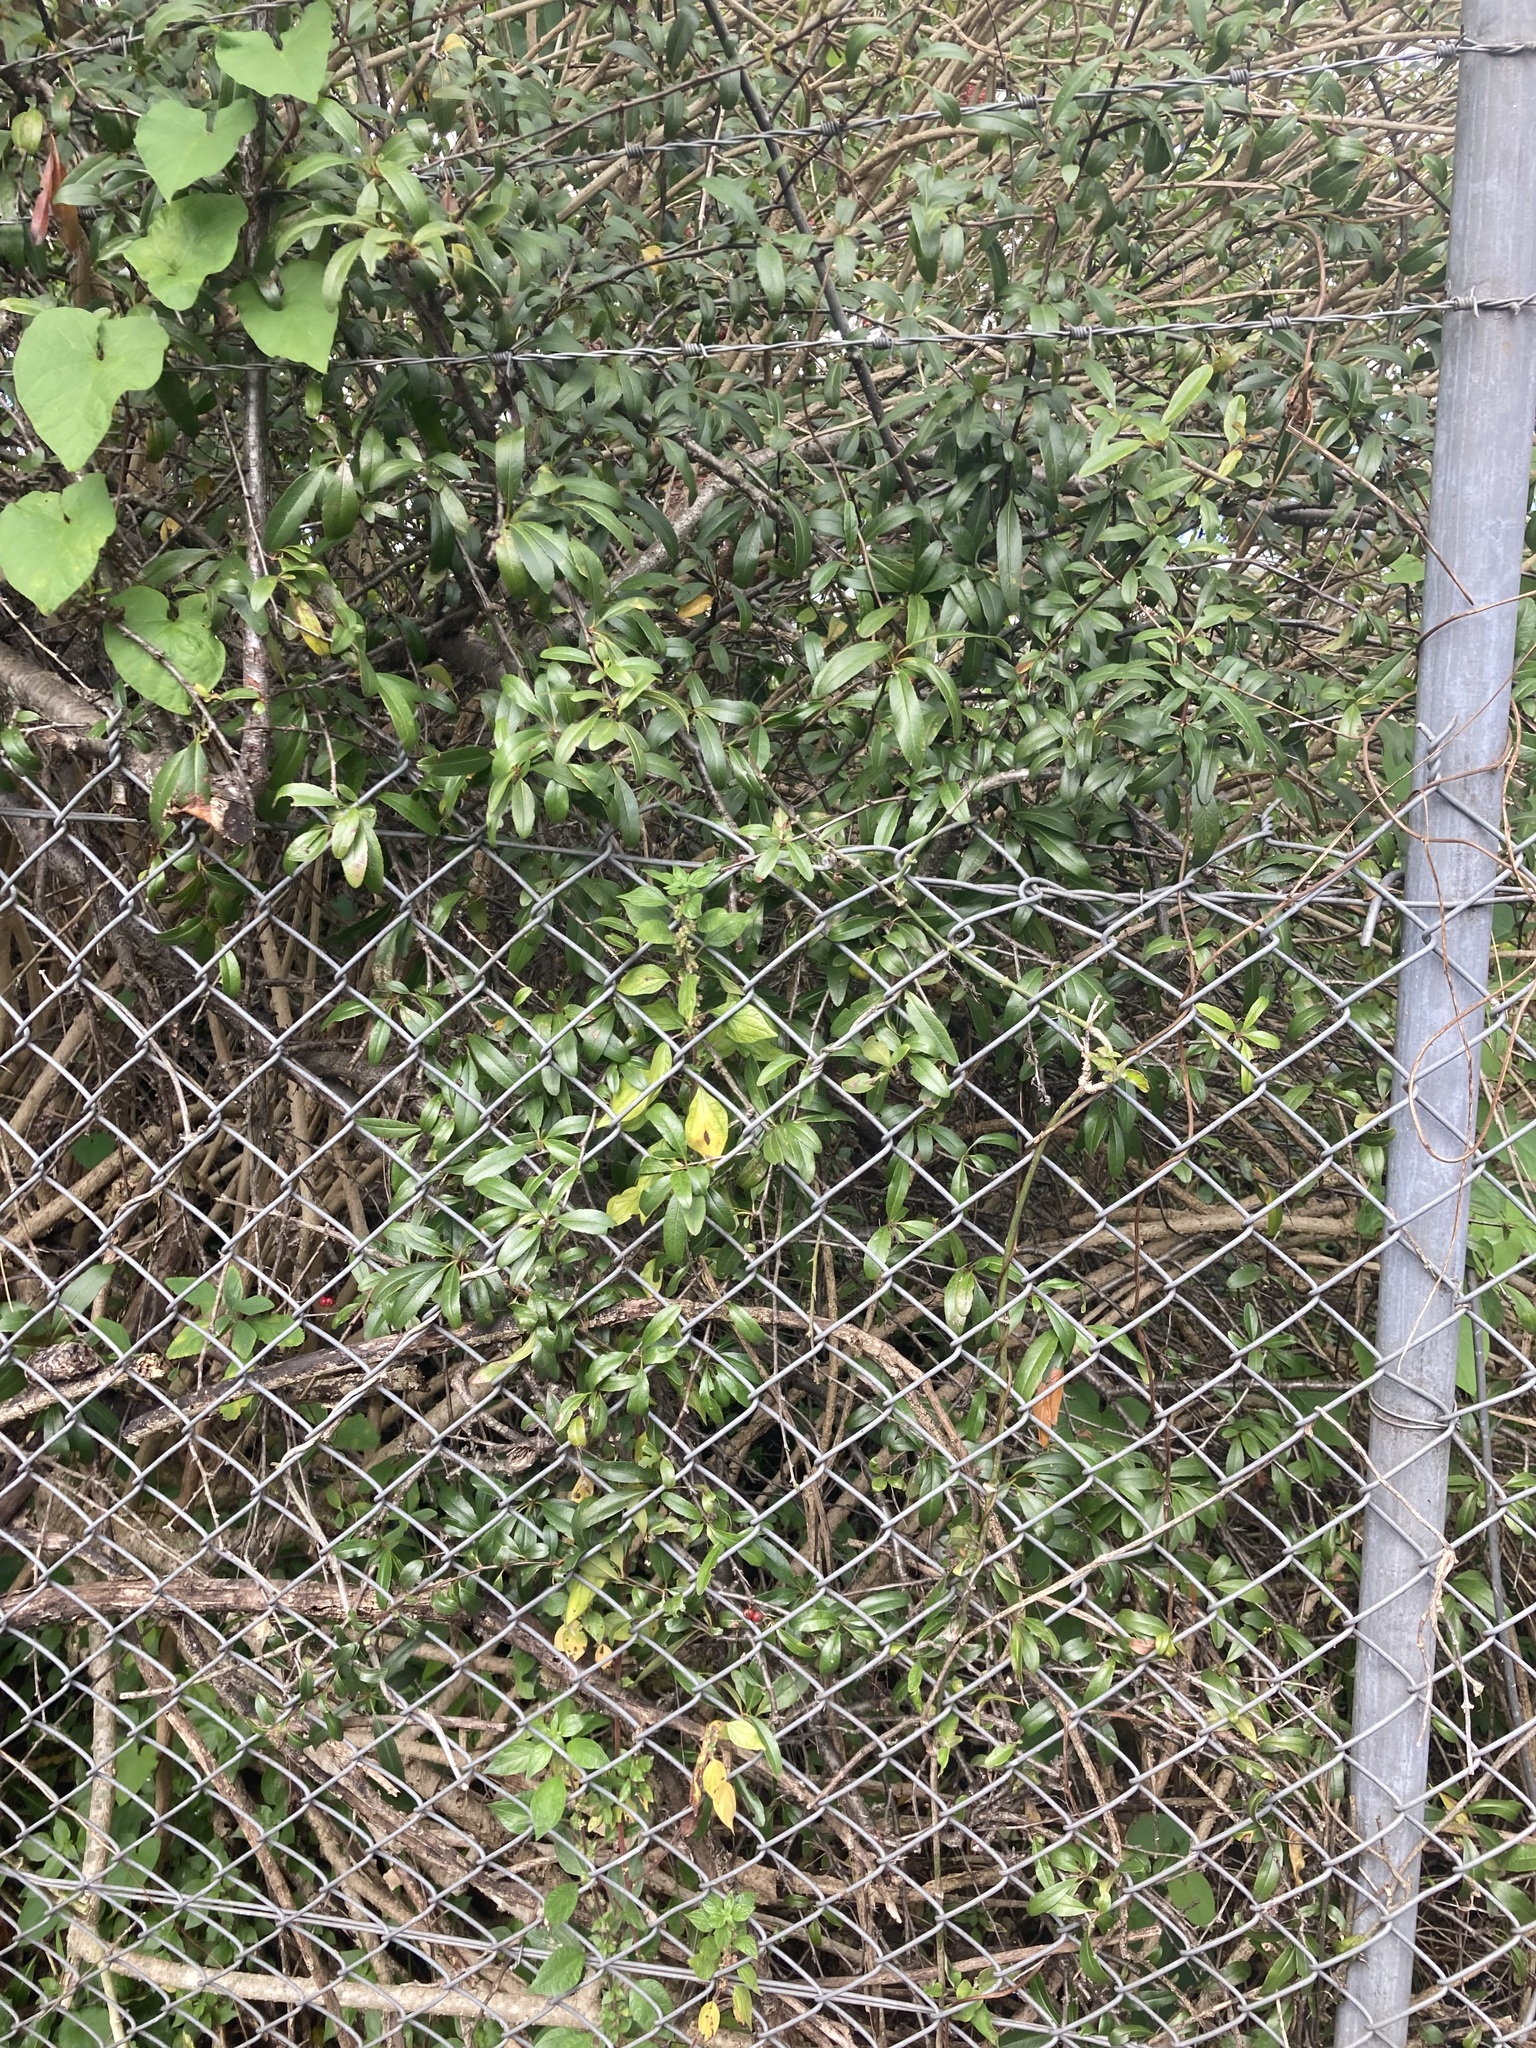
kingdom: Plantae
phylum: Tracheophyta
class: Magnoliopsida
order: Rosales
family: Rosaceae
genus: Pyracantha
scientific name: Pyracantha crenulata
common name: Nepalese firethorn
